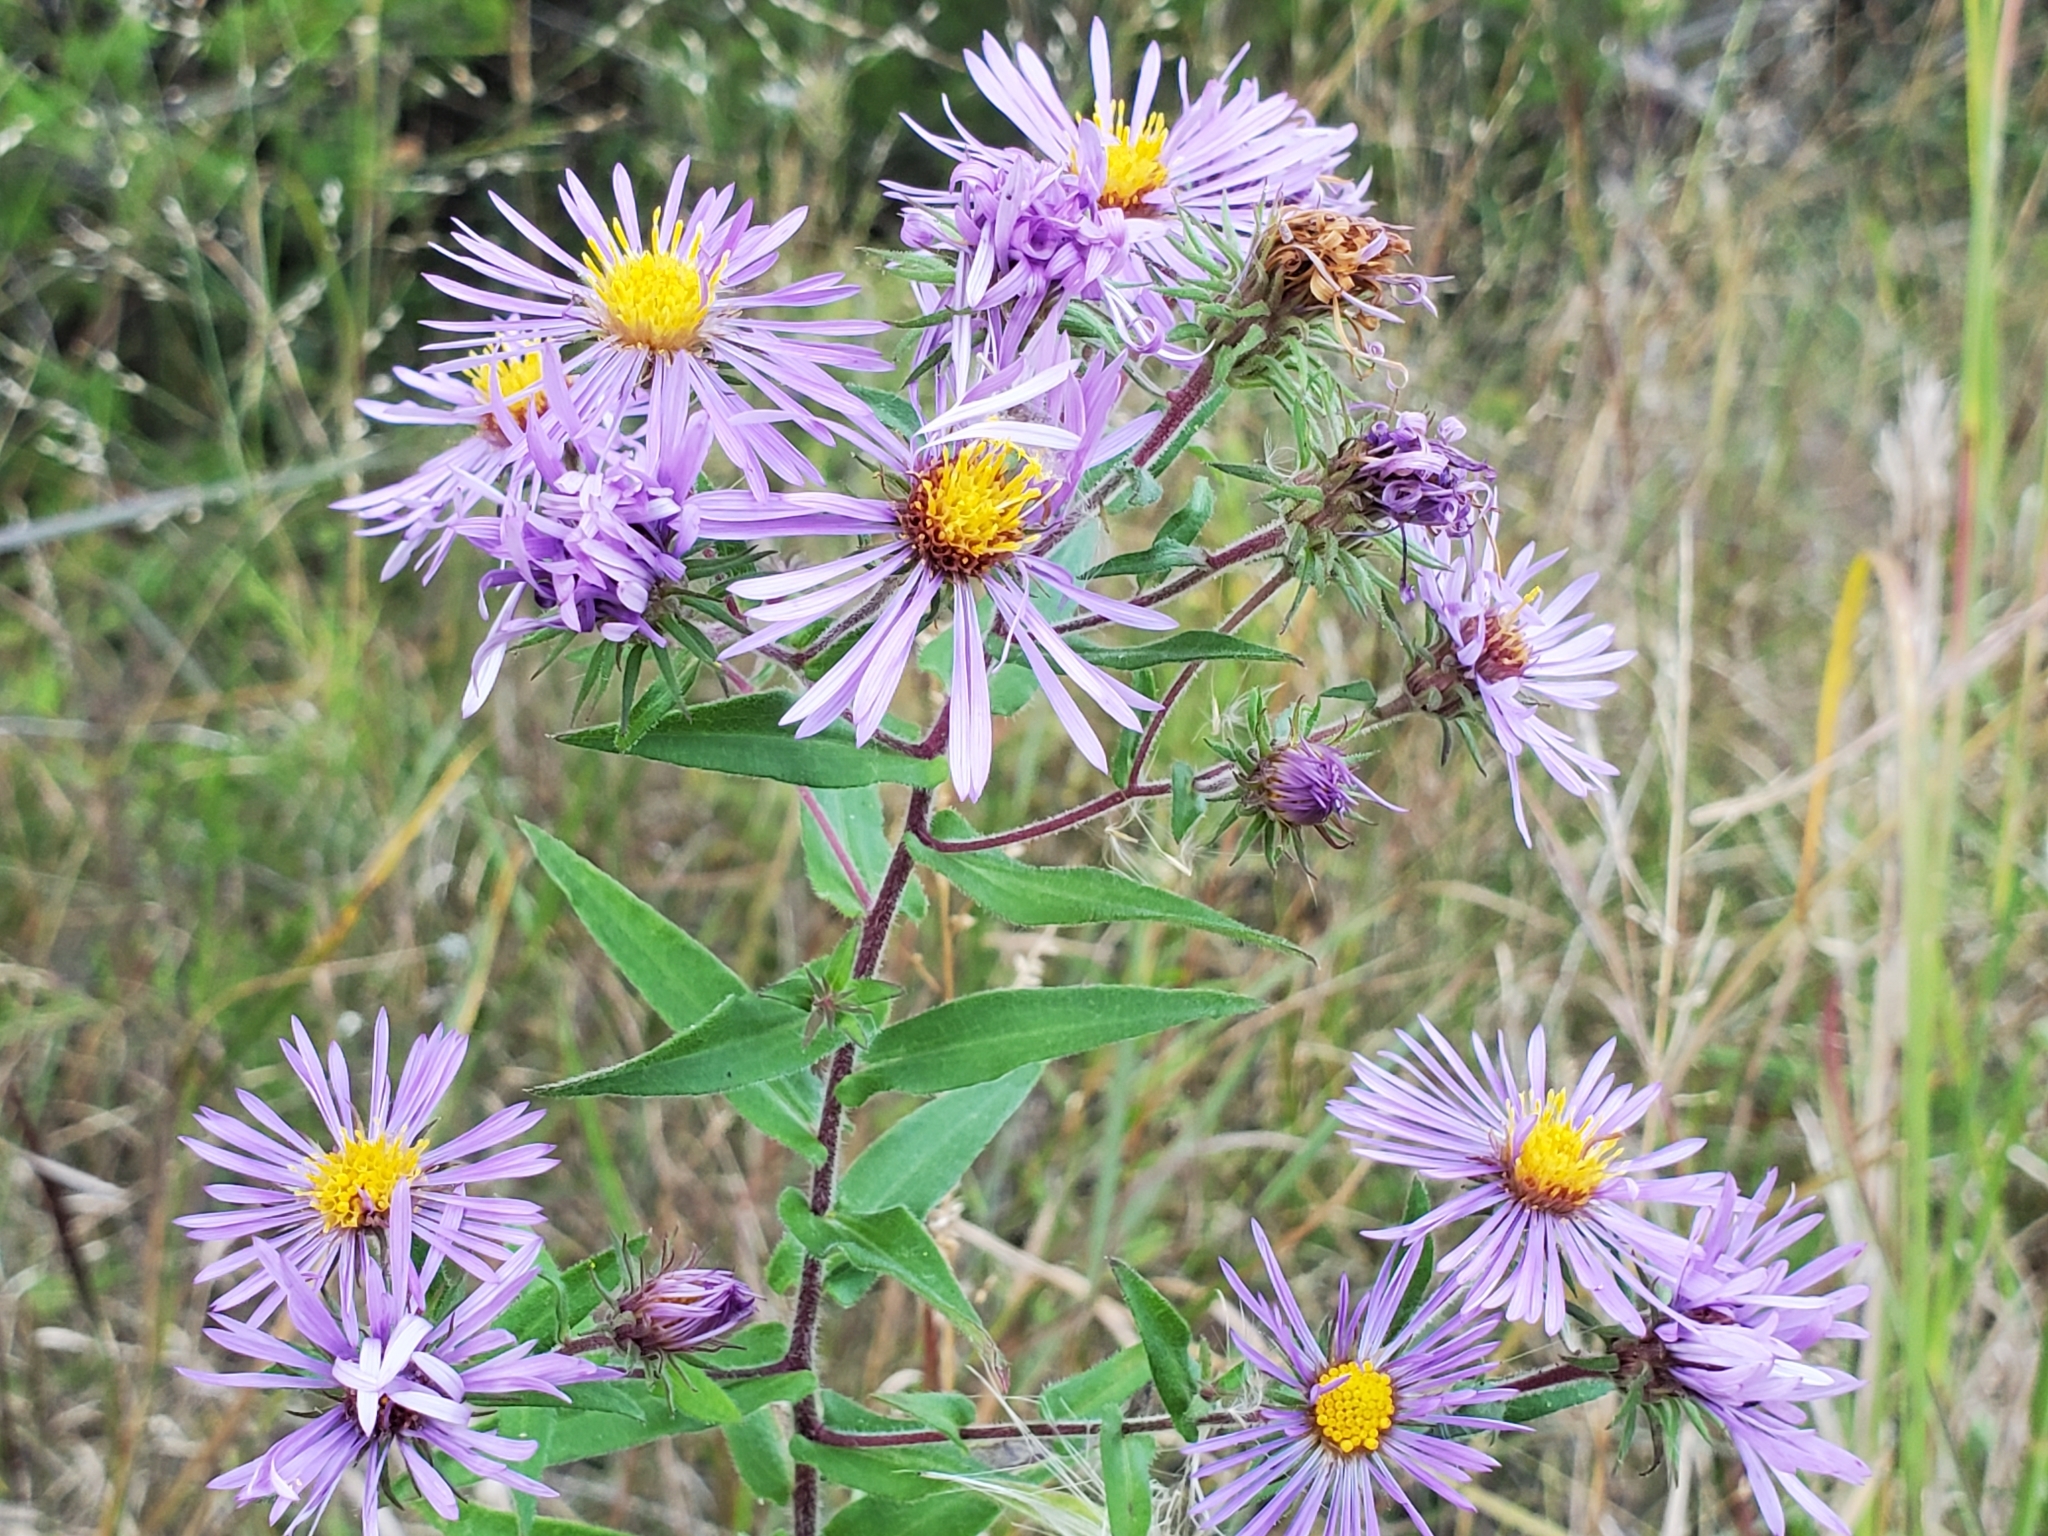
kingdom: Plantae
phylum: Tracheophyta
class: Magnoliopsida
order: Asterales
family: Asteraceae
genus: Symphyotrichum
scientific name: Symphyotrichum novae-angliae
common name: Michaelmas daisy
